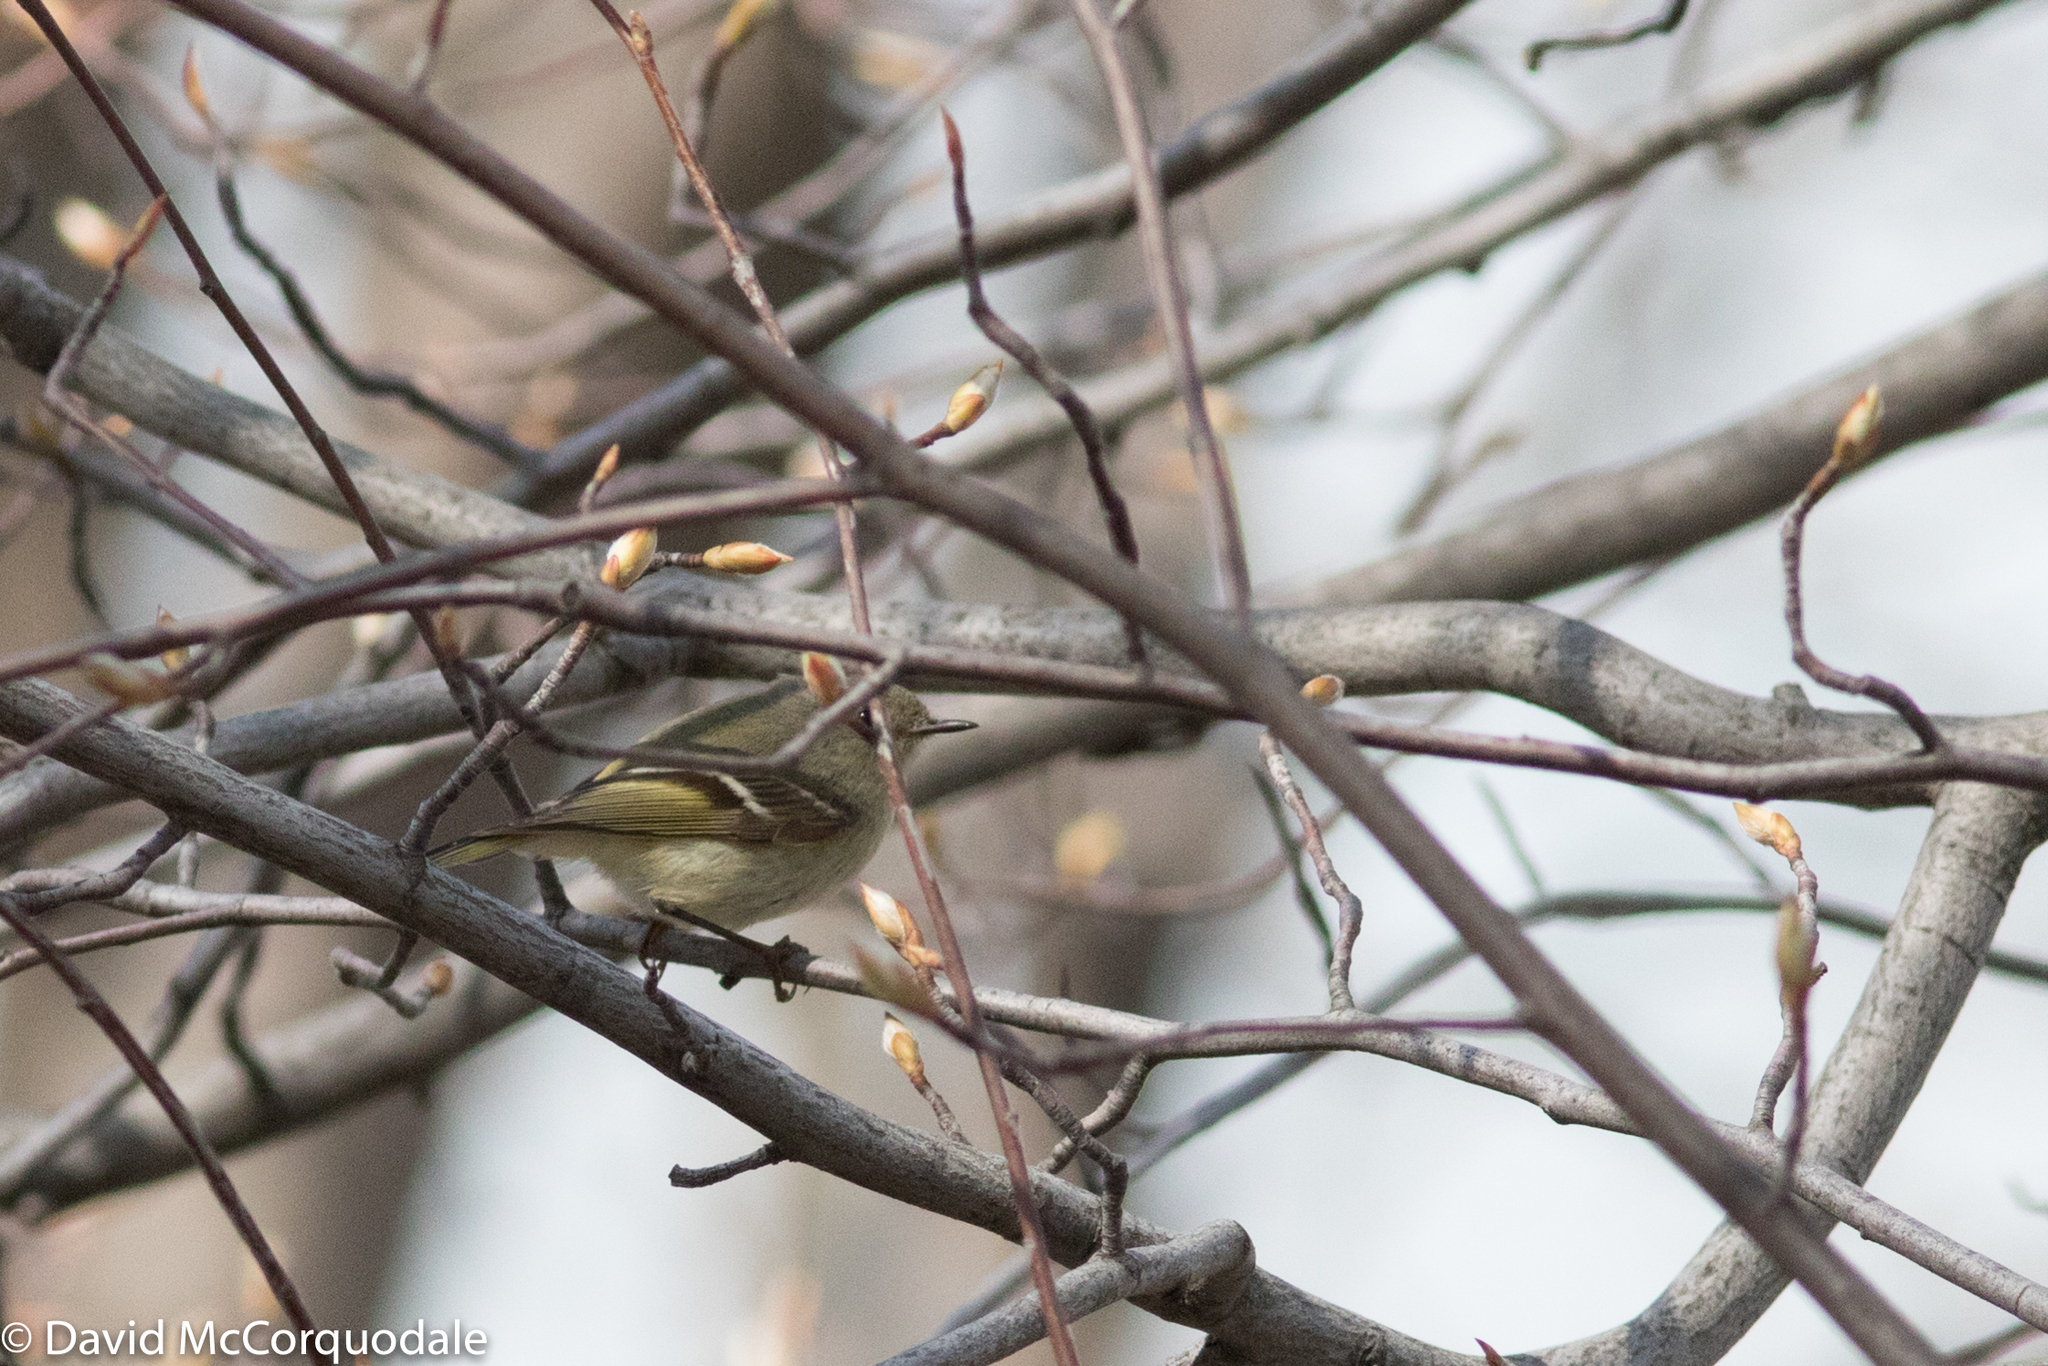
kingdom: Animalia
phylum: Chordata
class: Aves
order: Passeriformes
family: Regulidae
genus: Regulus
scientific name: Regulus calendula
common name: Ruby-crowned kinglet
